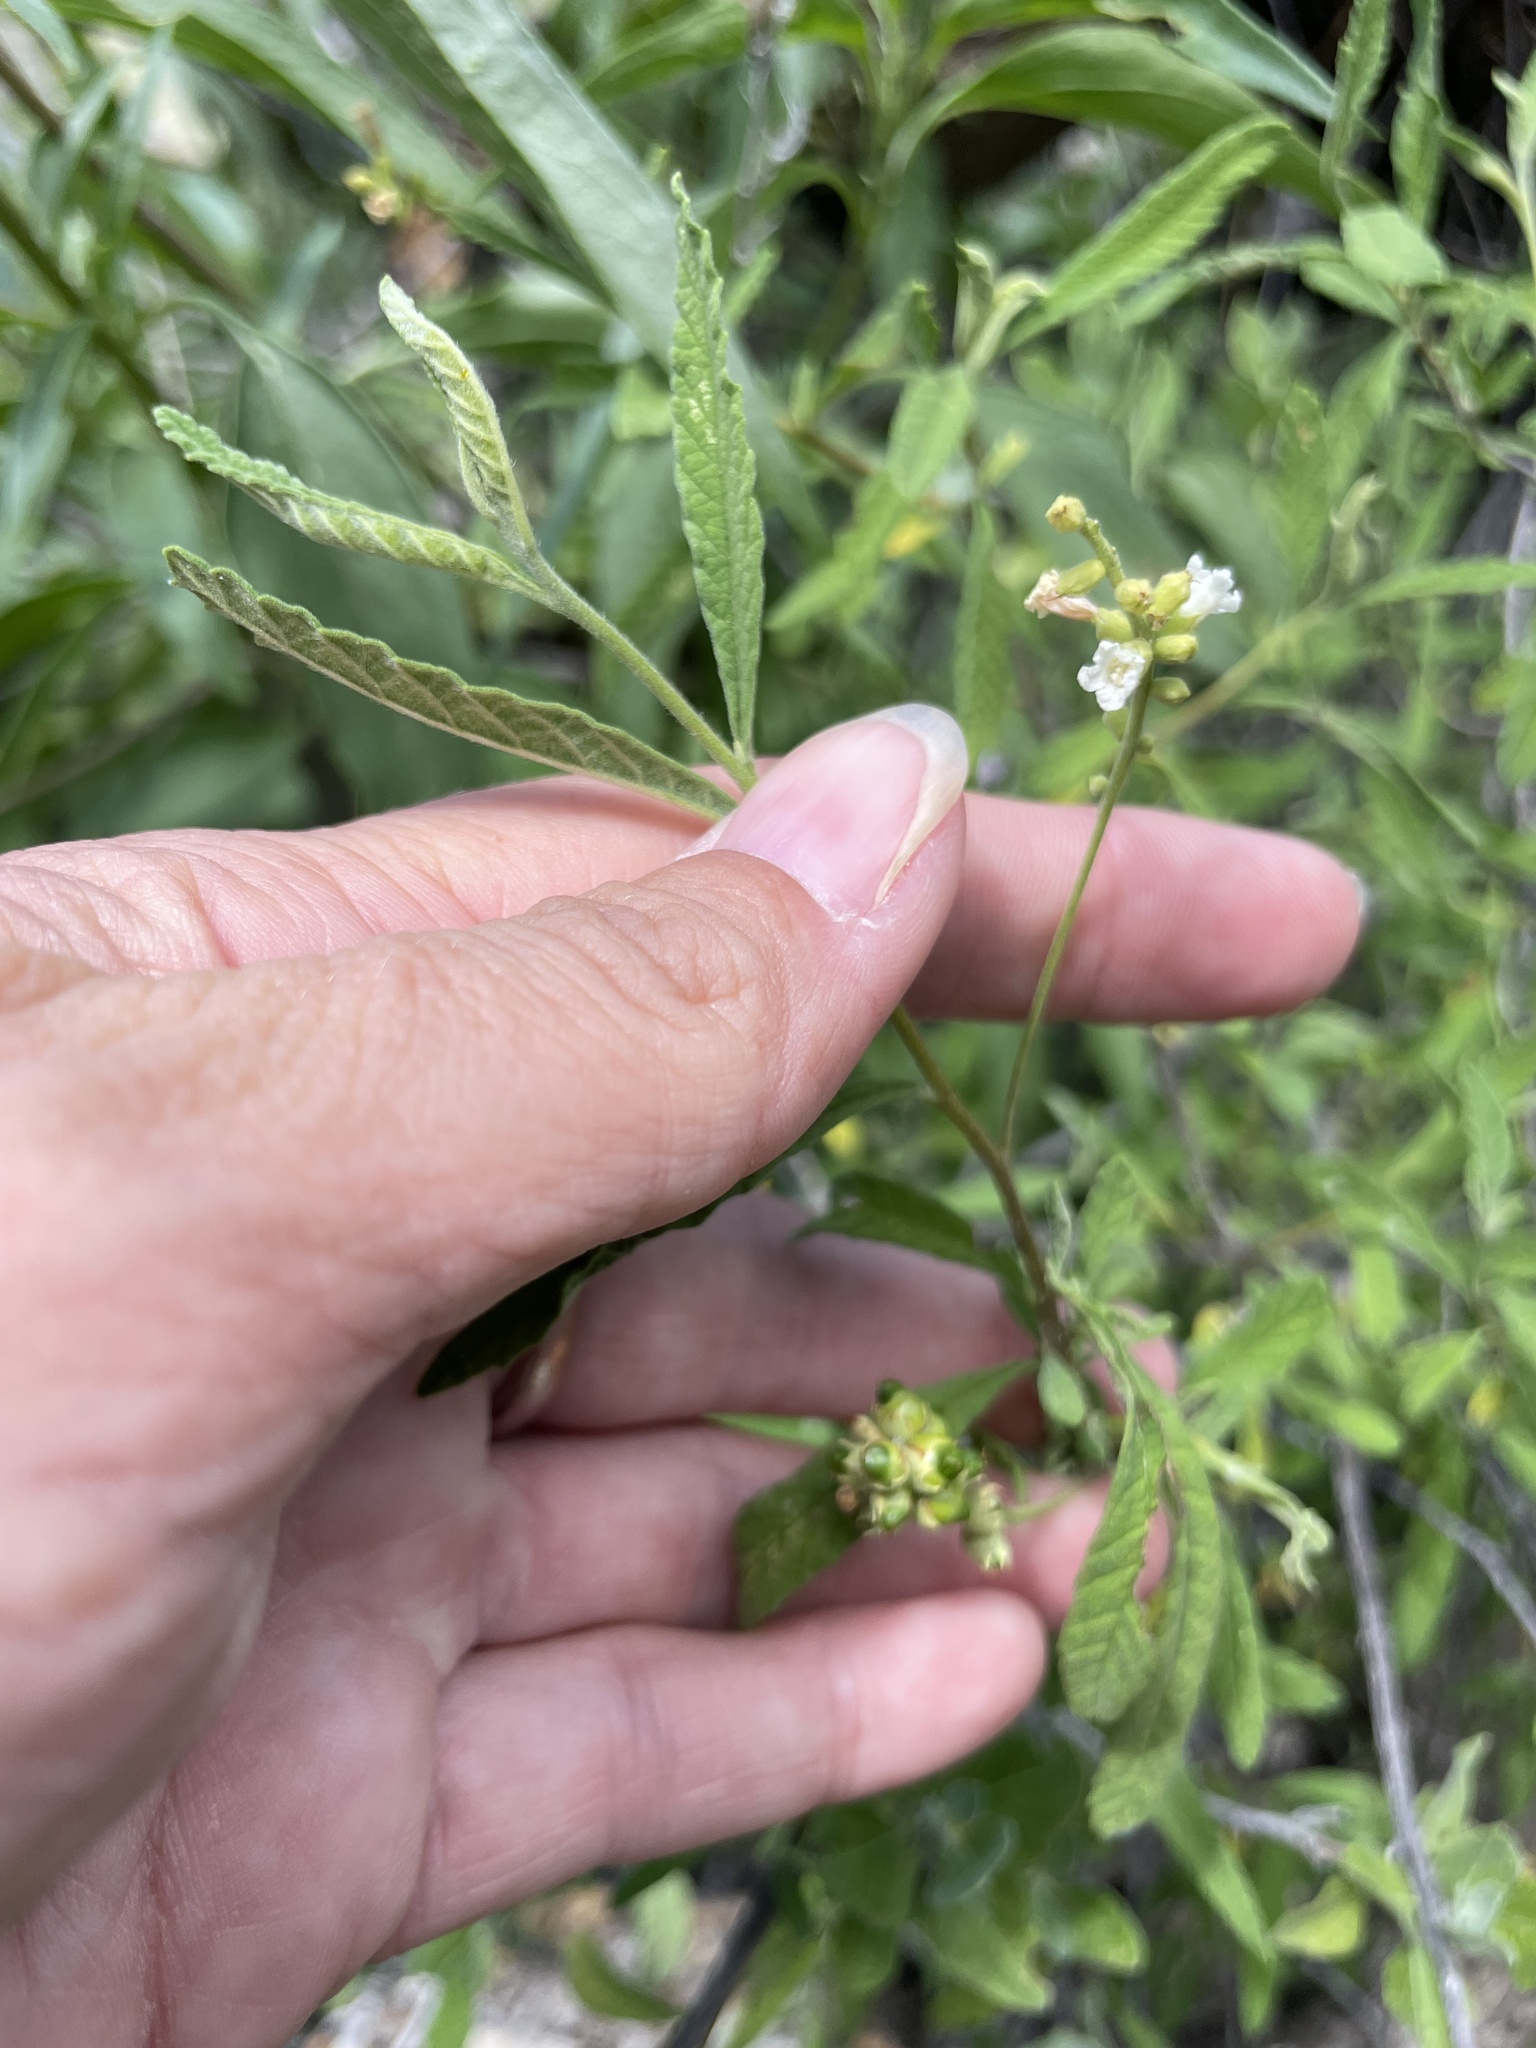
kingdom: Plantae
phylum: Tracheophyta
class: Magnoliopsida
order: Lamiales
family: Verbenaceae
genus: Lippia
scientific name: Lippia origanoides
